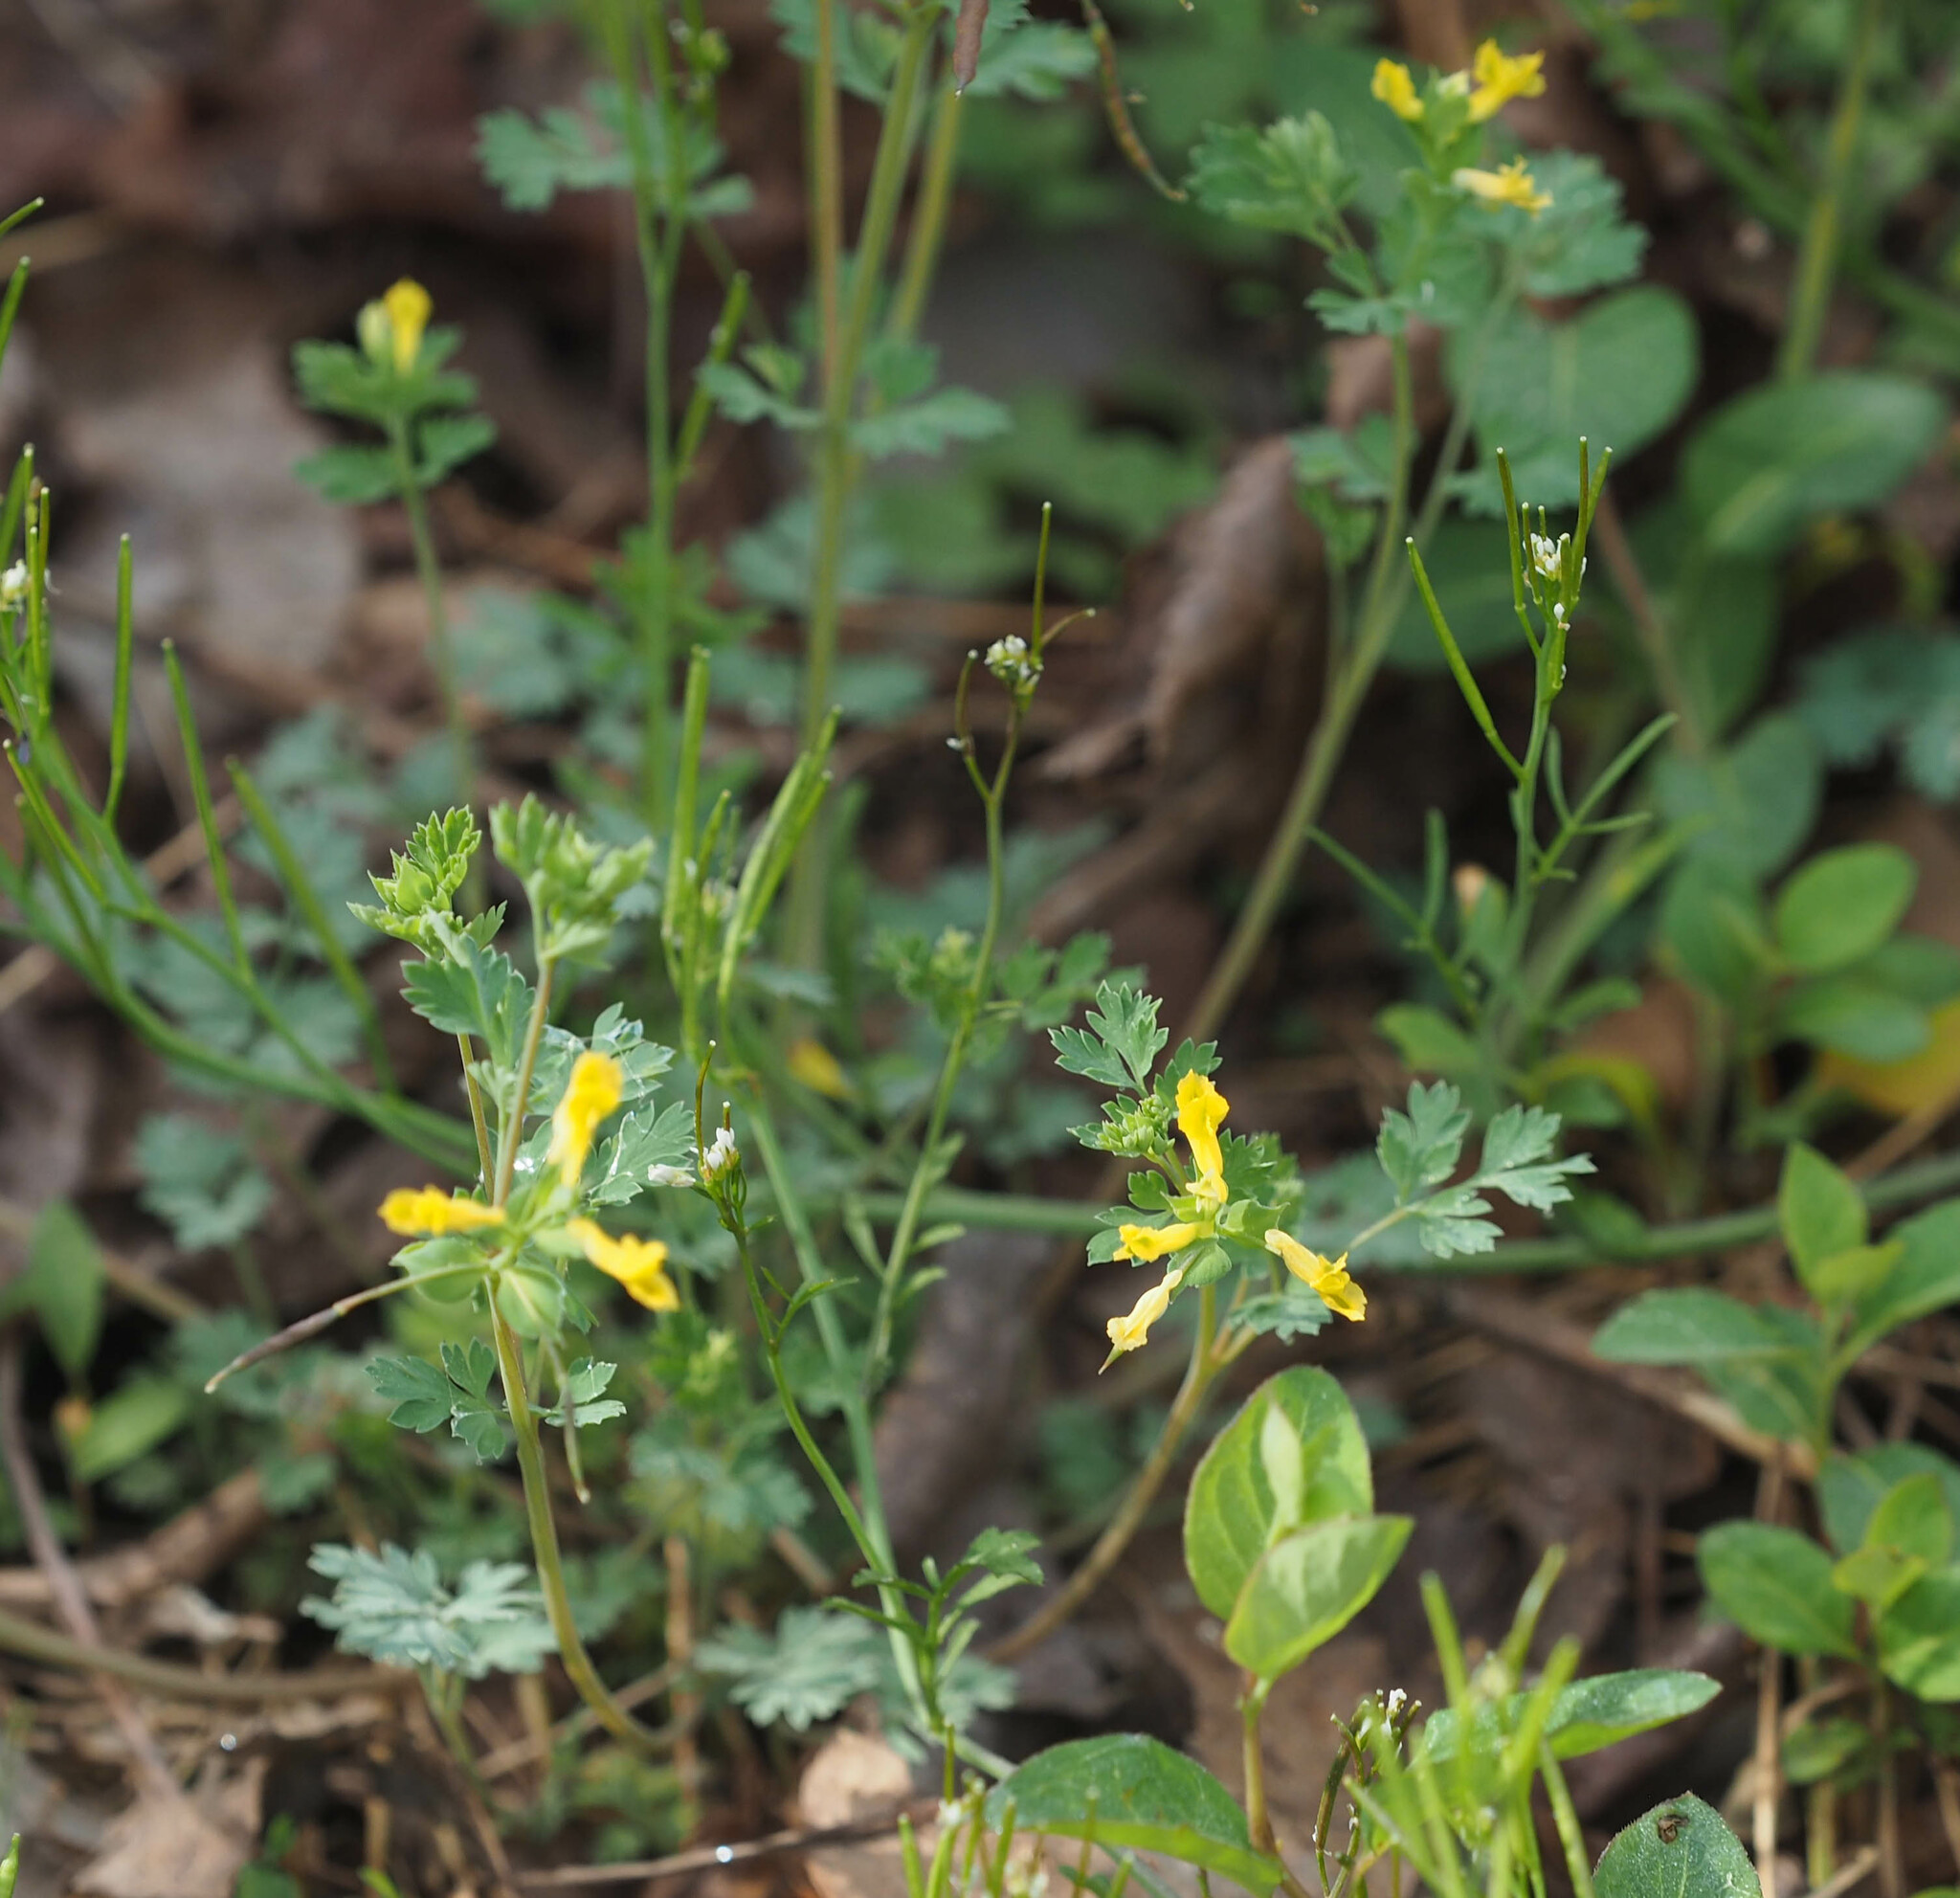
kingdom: Plantae
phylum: Tracheophyta
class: Magnoliopsida
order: Ranunculales
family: Papaveraceae
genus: Corydalis
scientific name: Corydalis flavula
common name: Yellow corydalis
